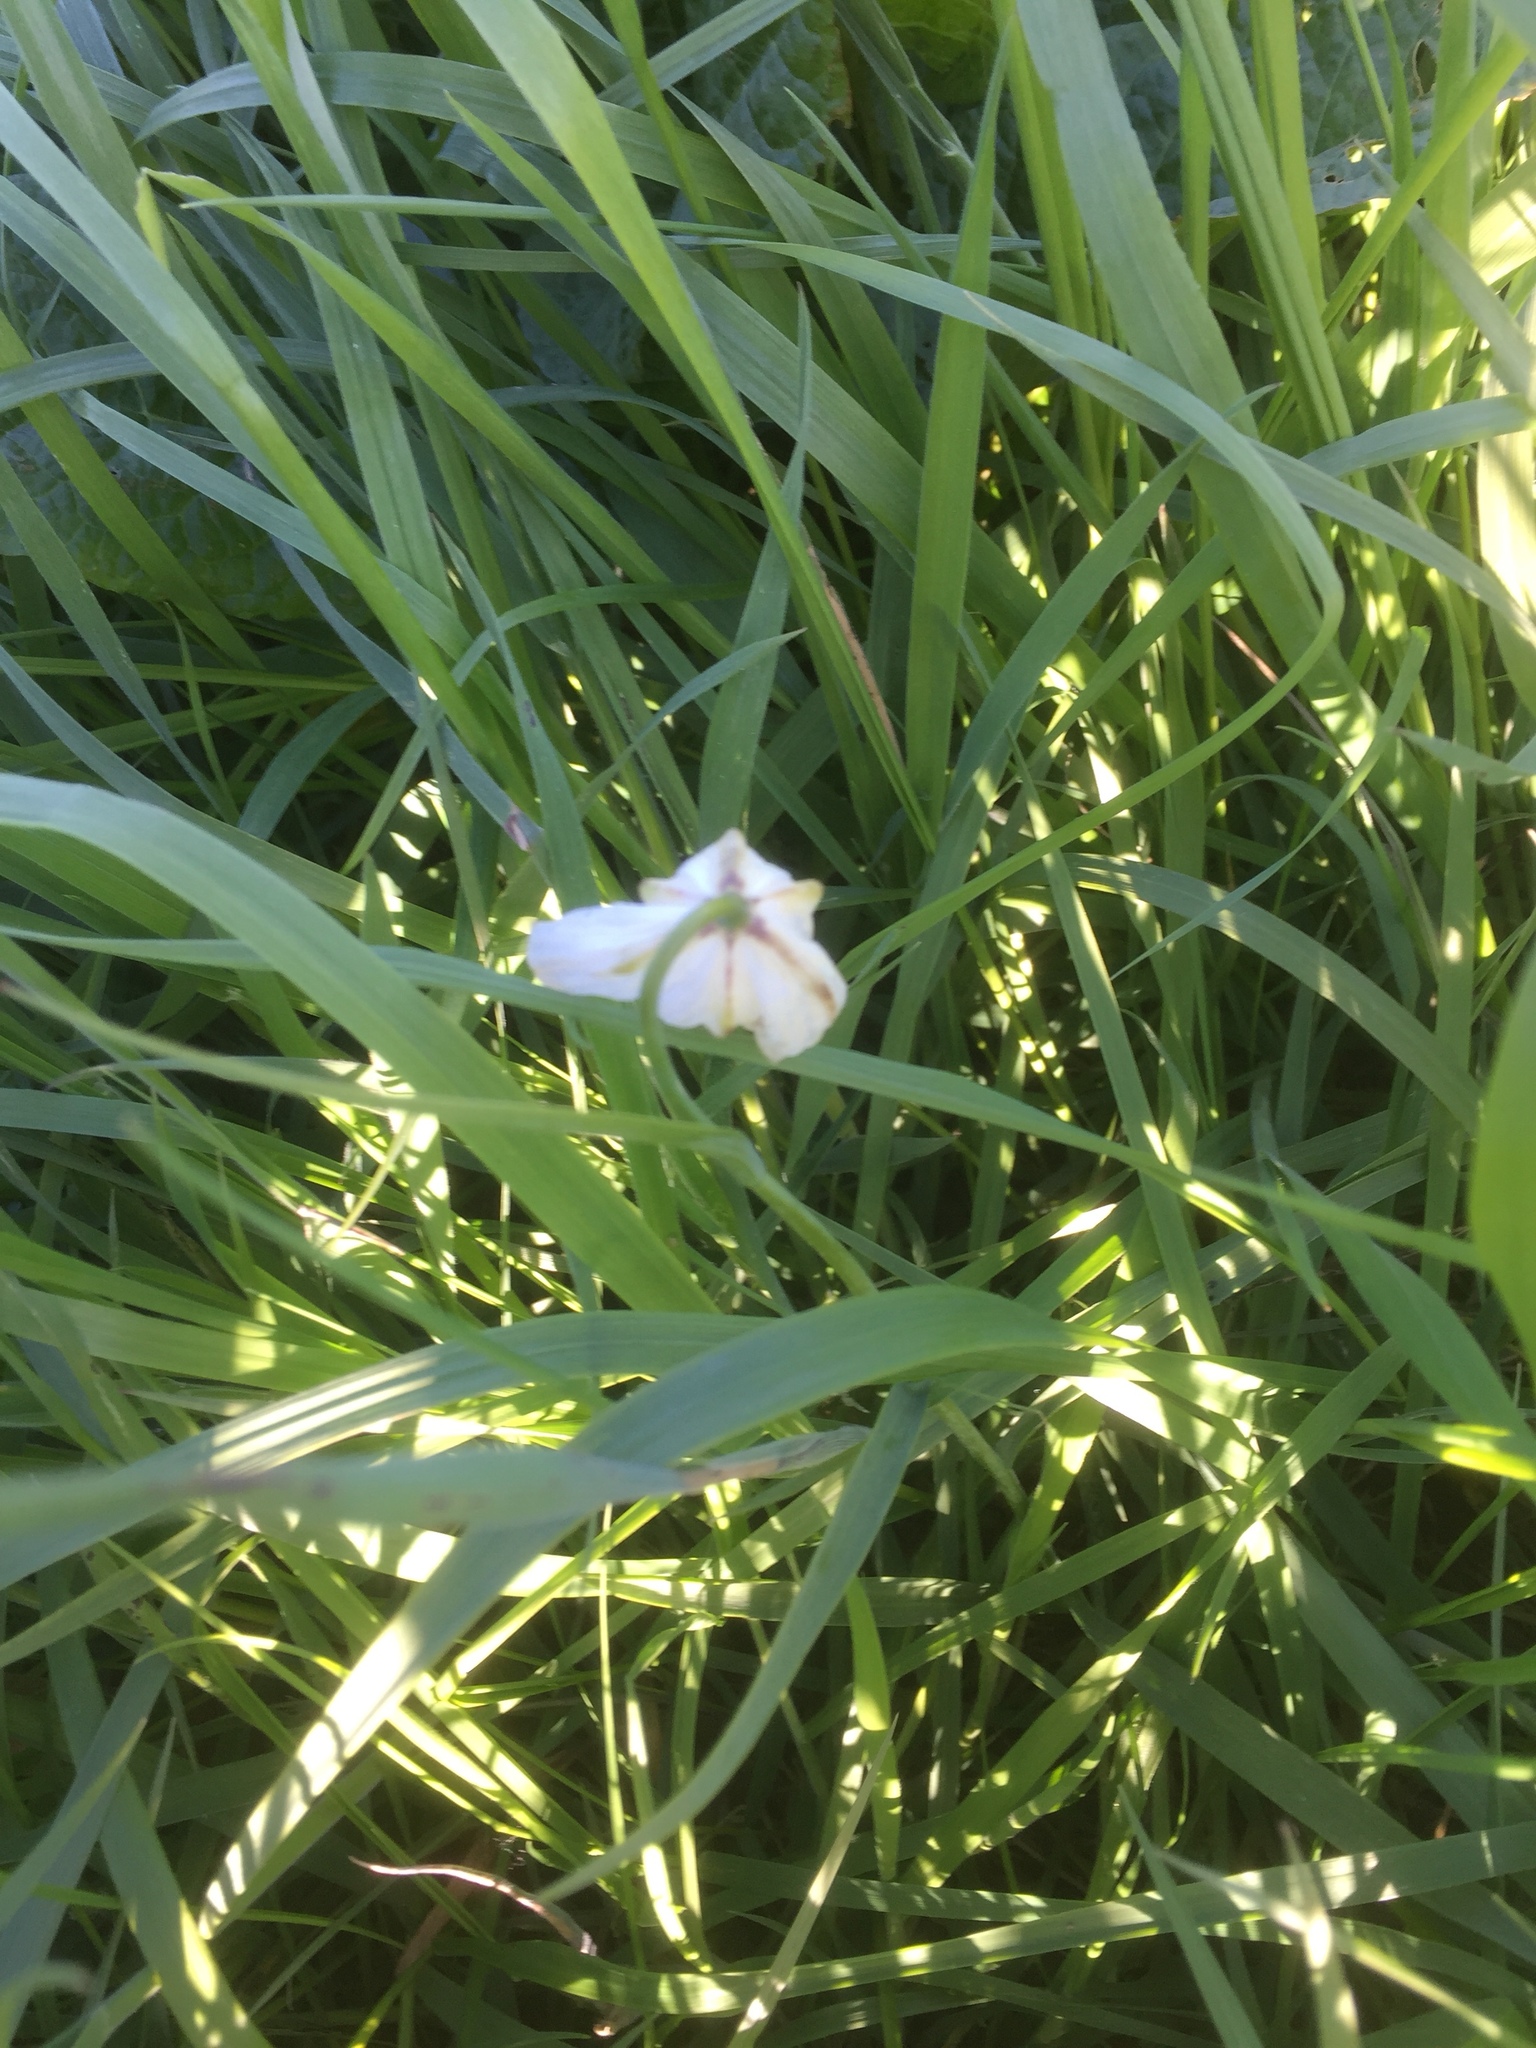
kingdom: Plantae
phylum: Tracheophyta
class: Liliopsida
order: Liliales
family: Liliaceae
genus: Fritillaria
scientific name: Fritillaria meleagris
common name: Fritillary
